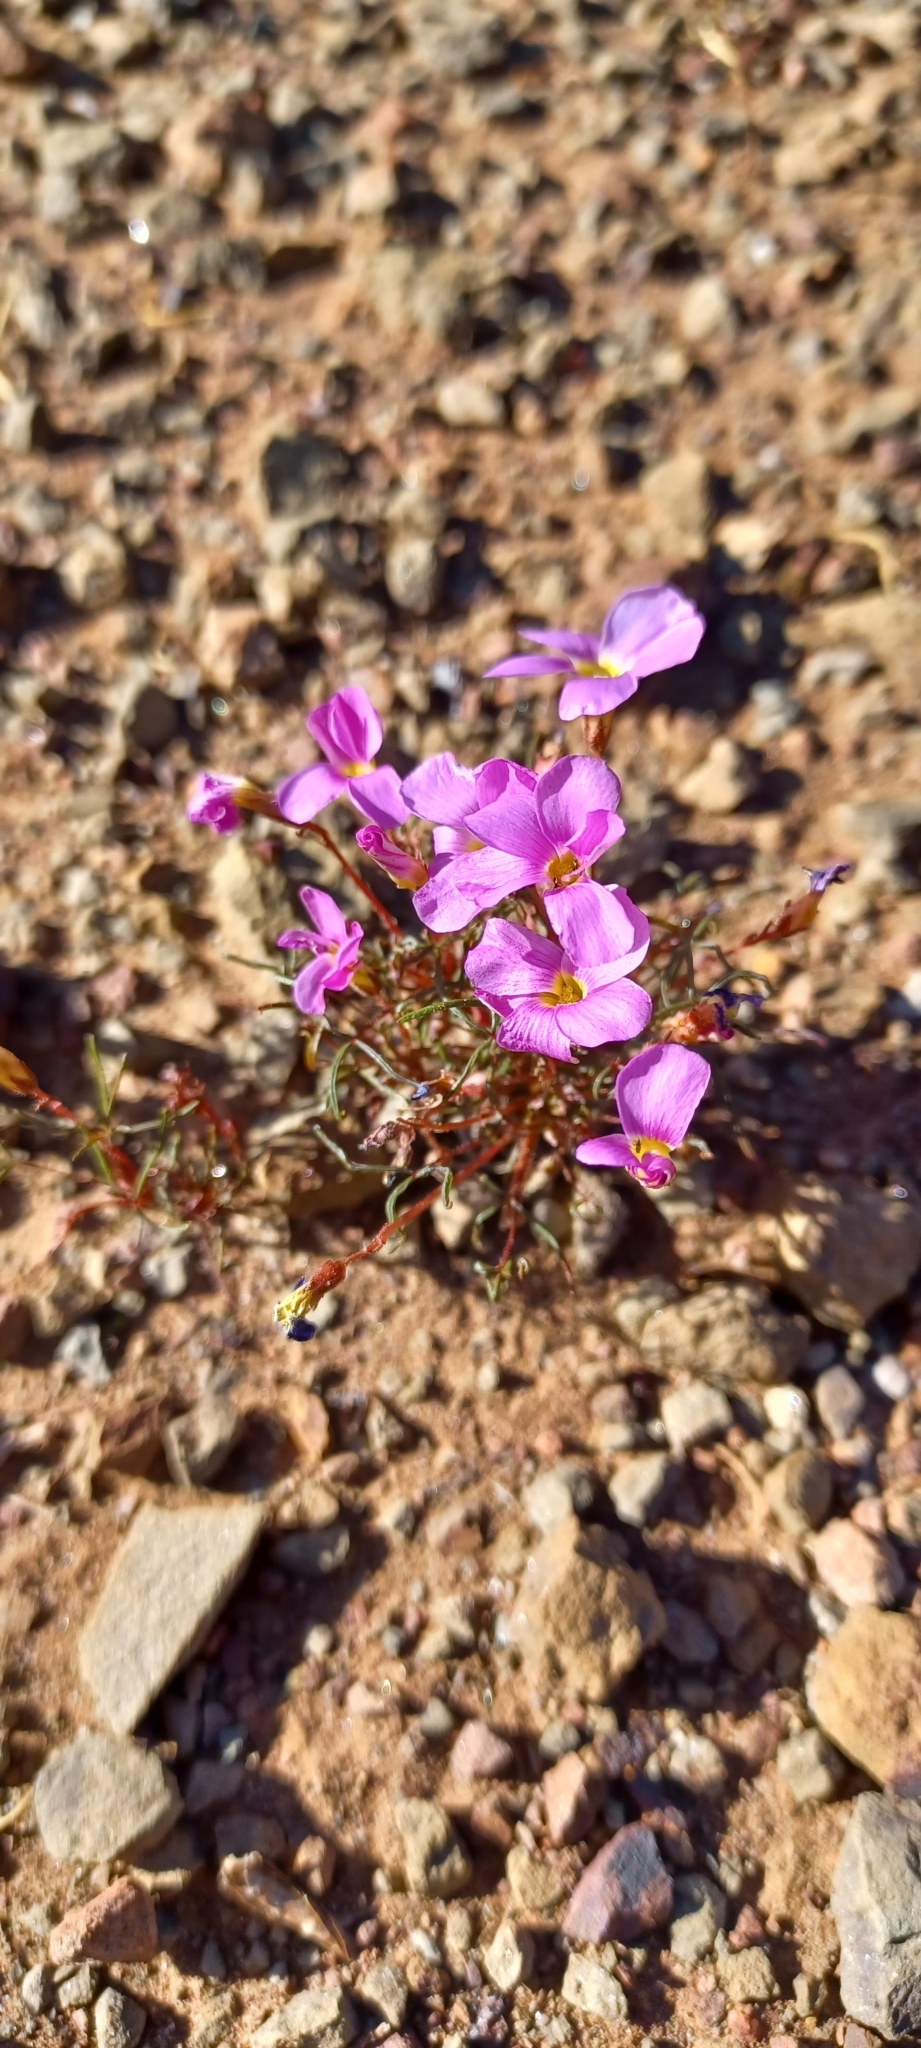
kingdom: Plantae
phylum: Tracheophyta
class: Magnoliopsida
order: Oxalidales
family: Oxalidaceae
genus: Oxalis
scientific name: Oxalis leptogramma
